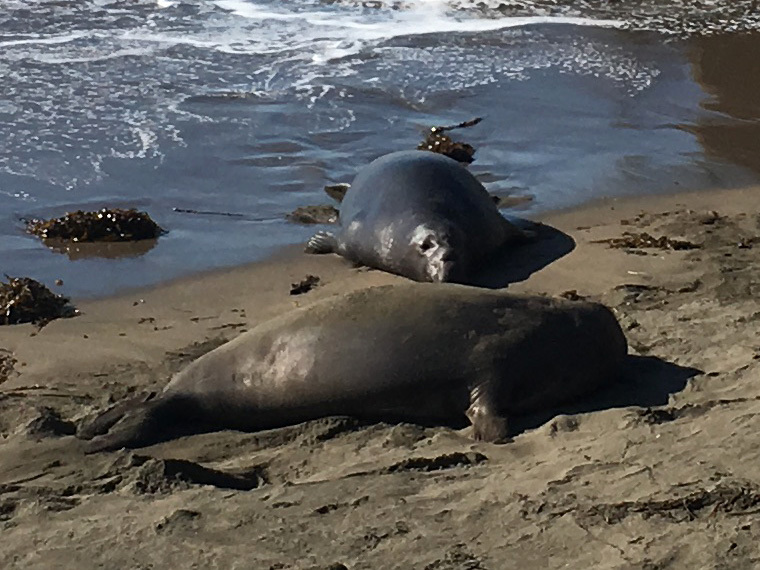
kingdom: Animalia
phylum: Chordata
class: Mammalia
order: Carnivora
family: Phocidae
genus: Mirounga
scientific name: Mirounga angustirostris
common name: Northern elephant seal
